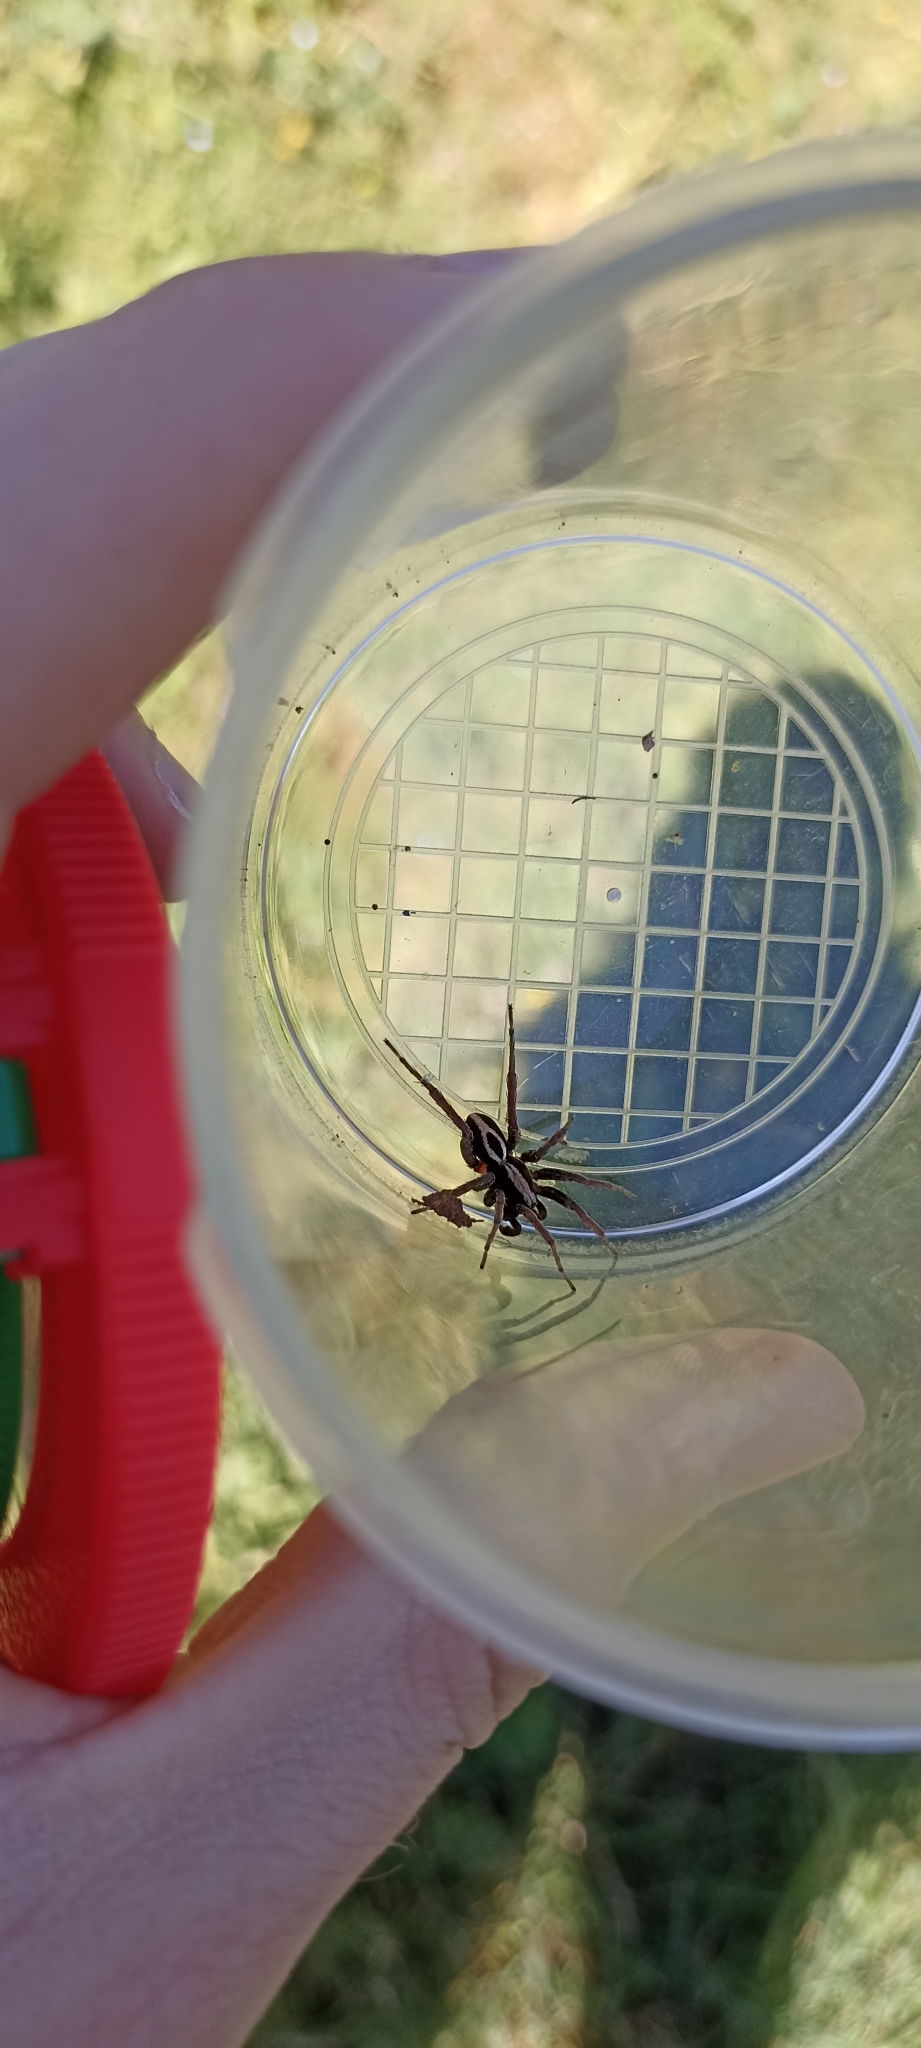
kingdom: Animalia
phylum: Arthropoda
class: Arachnida
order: Araneae
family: Lycosidae
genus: Alopecosa
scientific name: Alopecosa albofasciata
